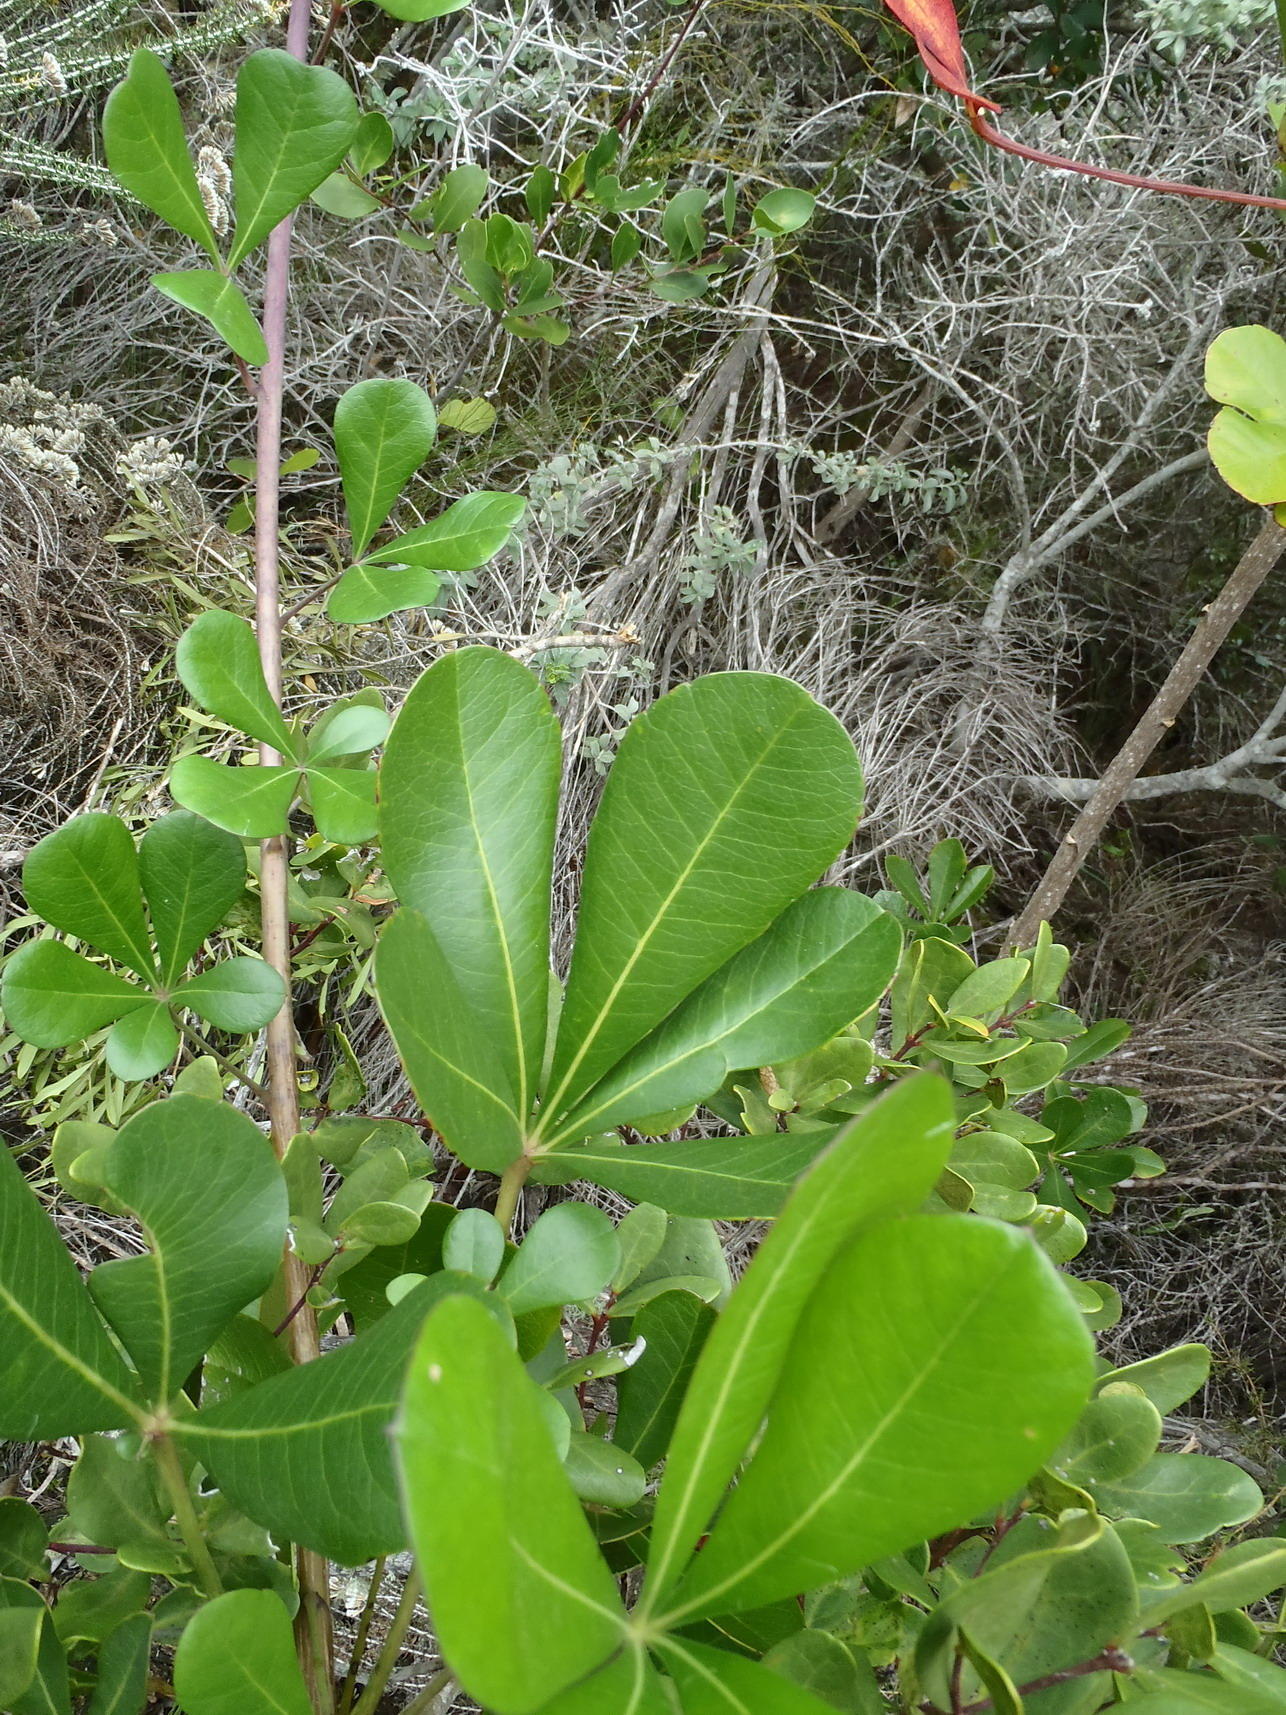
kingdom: Plantae
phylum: Tracheophyta
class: Magnoliopsida
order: Apiales
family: Araliaceae
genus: Cussonia
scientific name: Cussonia thyrsiflora
